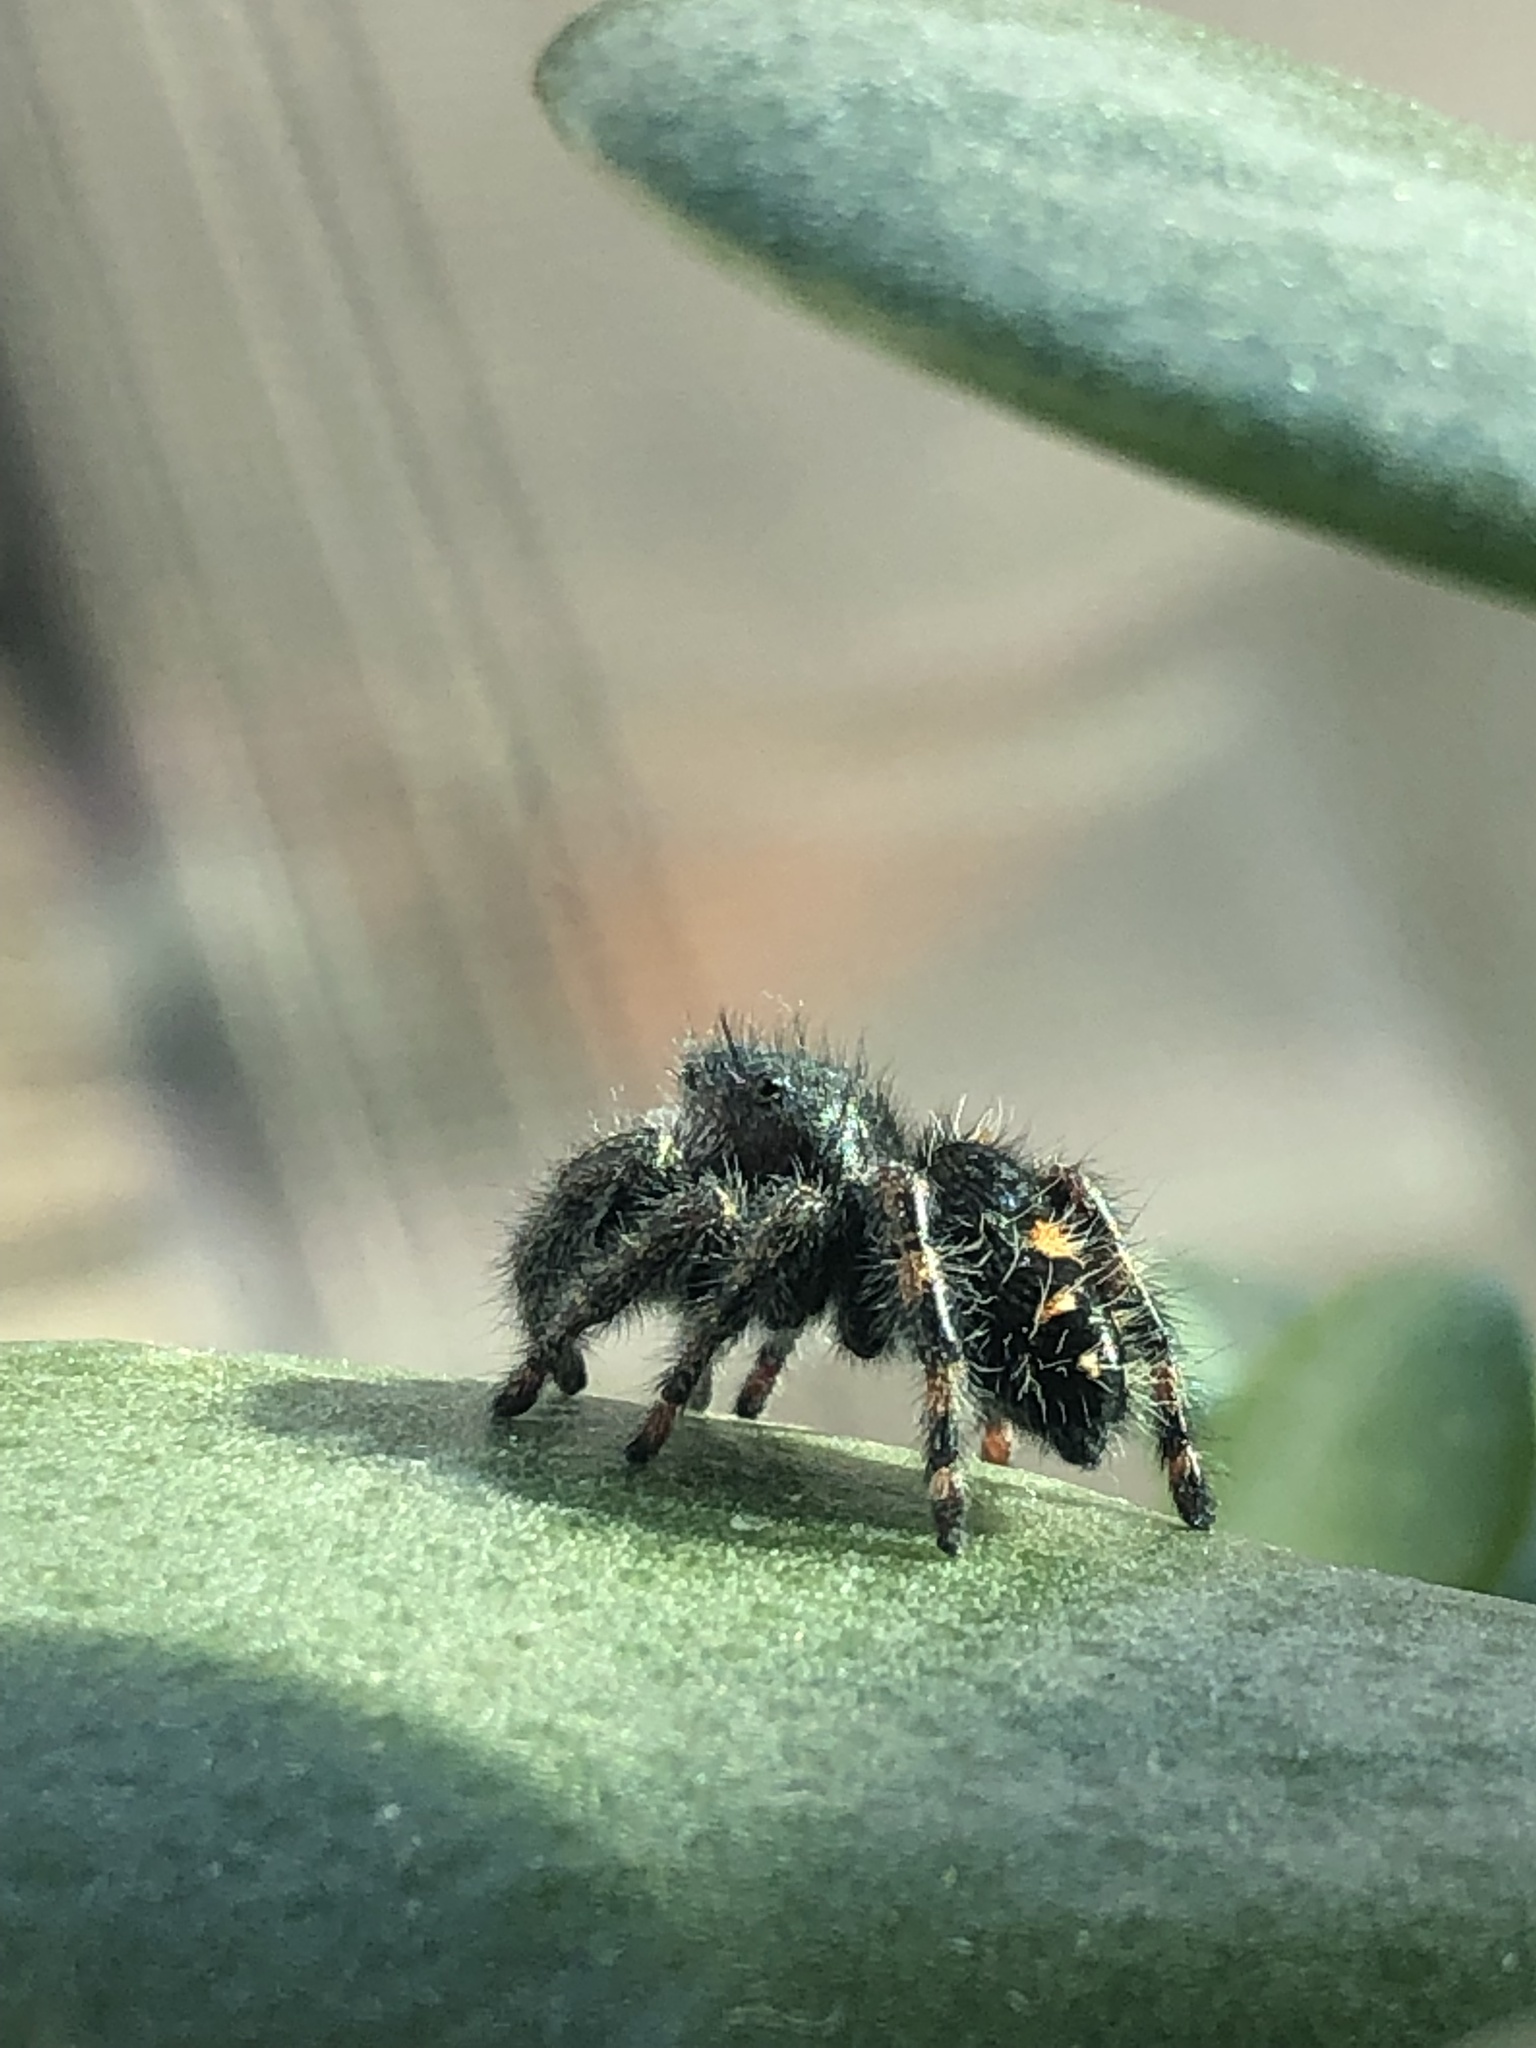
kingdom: Animalia
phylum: Arthropoda
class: Arachnida
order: Araneae
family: Salticidae
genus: Phidippus
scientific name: Phidippus audax
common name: Bold jumper
